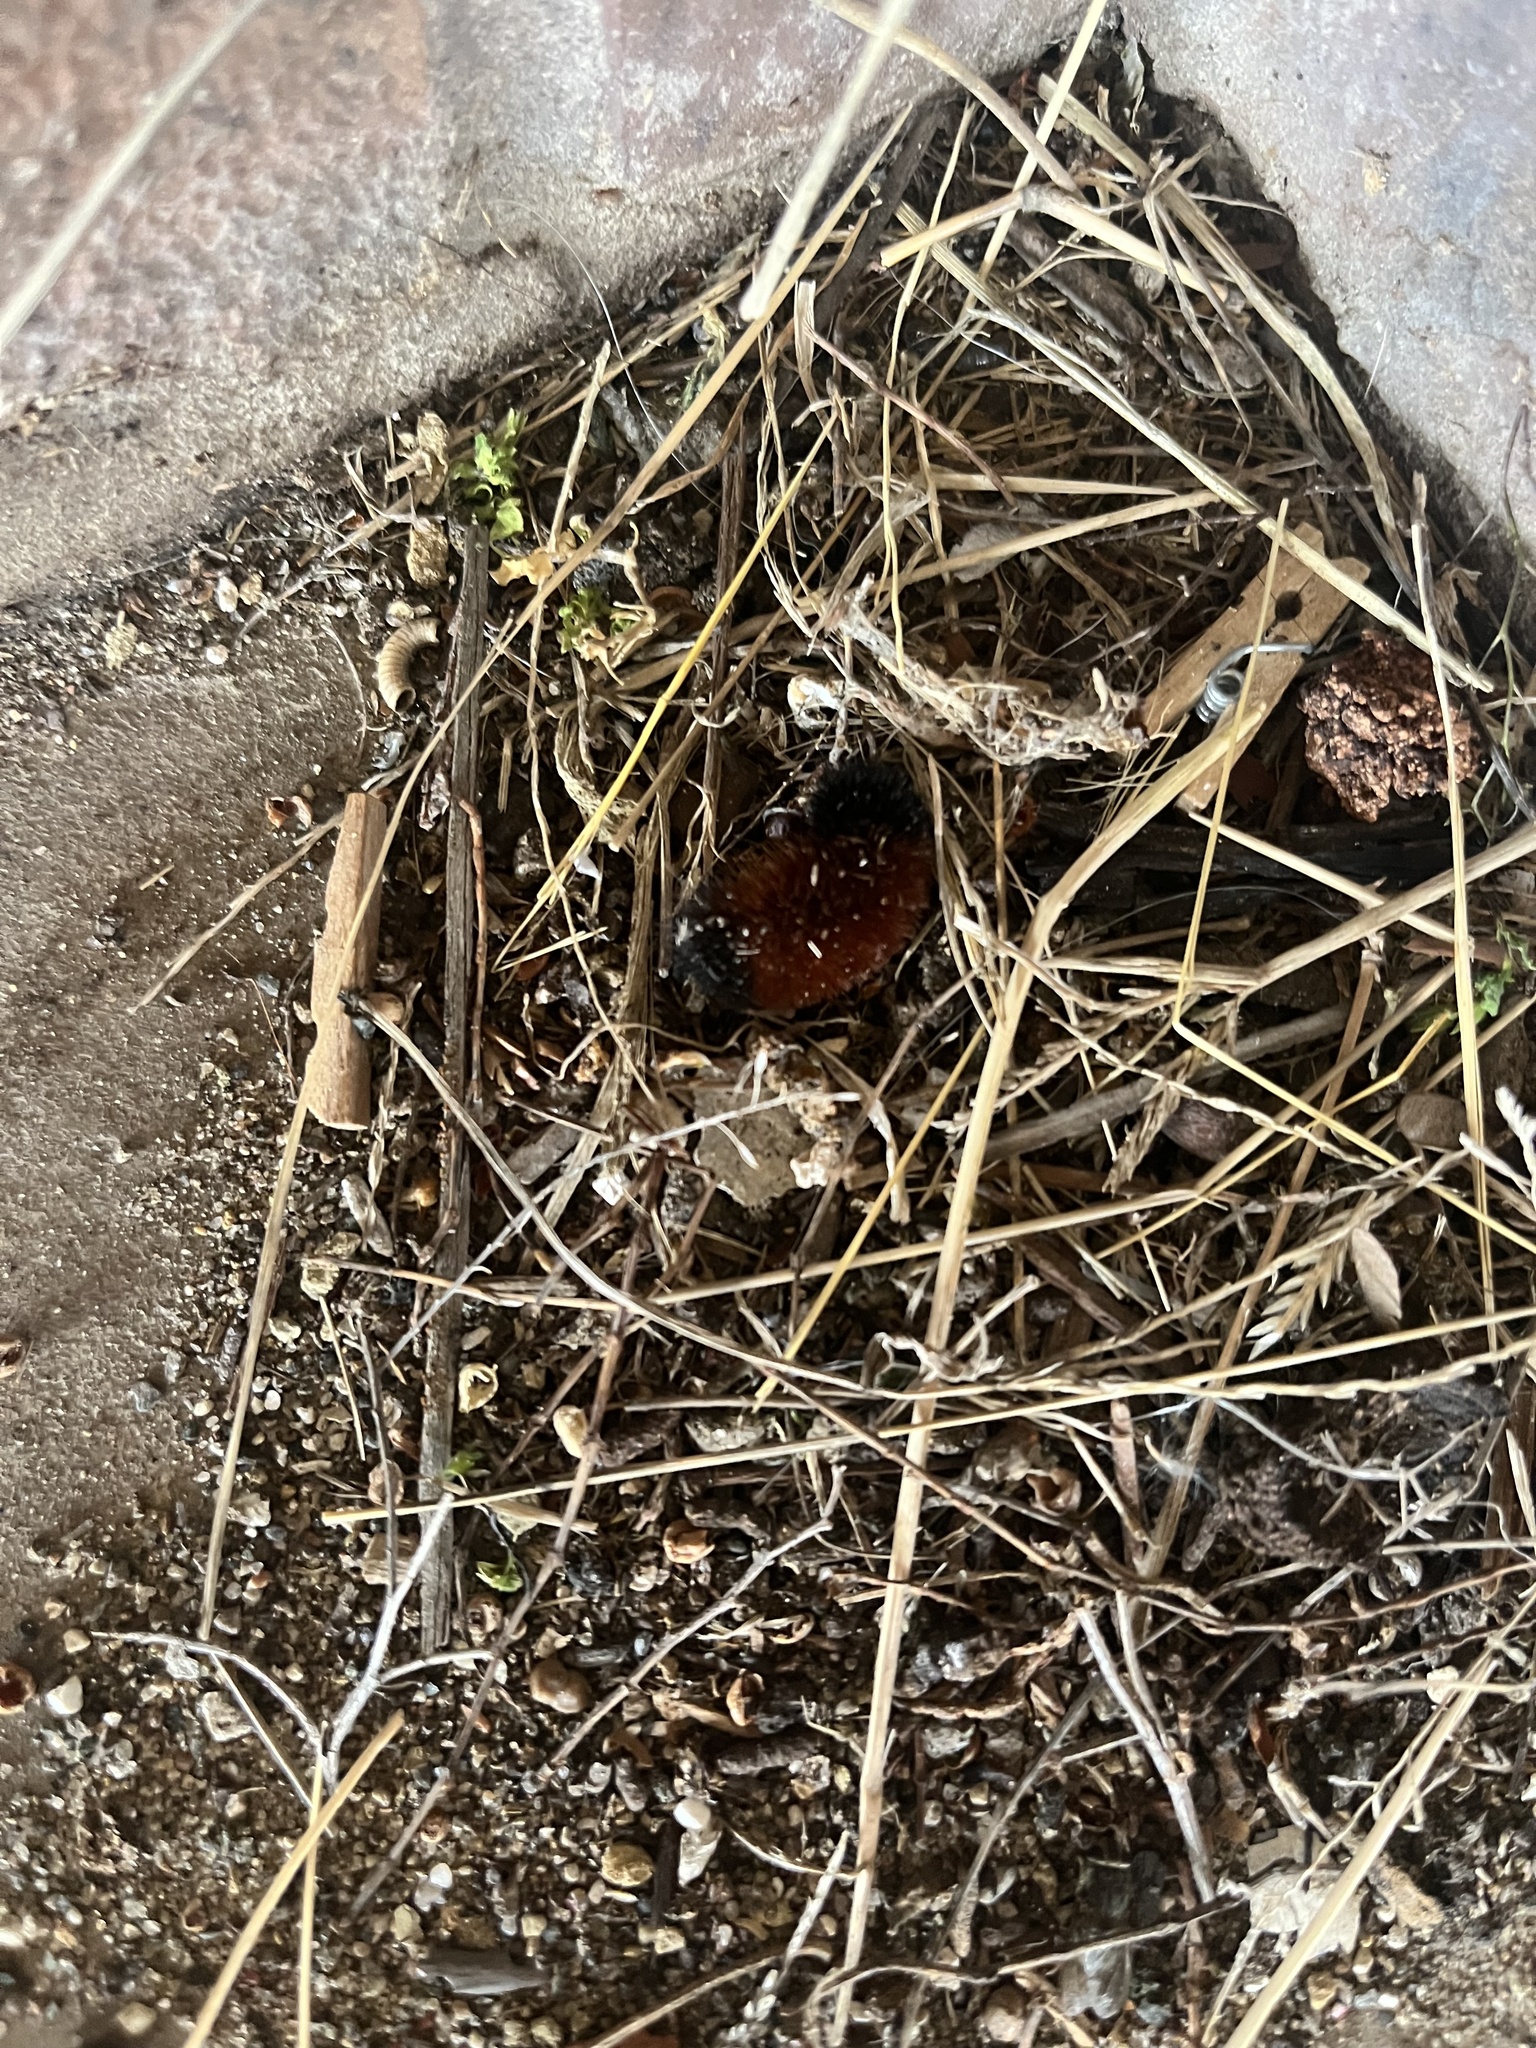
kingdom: Animalia
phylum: Arthropoda
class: Insecta
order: Lepidoptera
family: Erebidae
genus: Pyrrharctia
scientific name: Pyrrharctia isabella
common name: Isabella tiger moth
